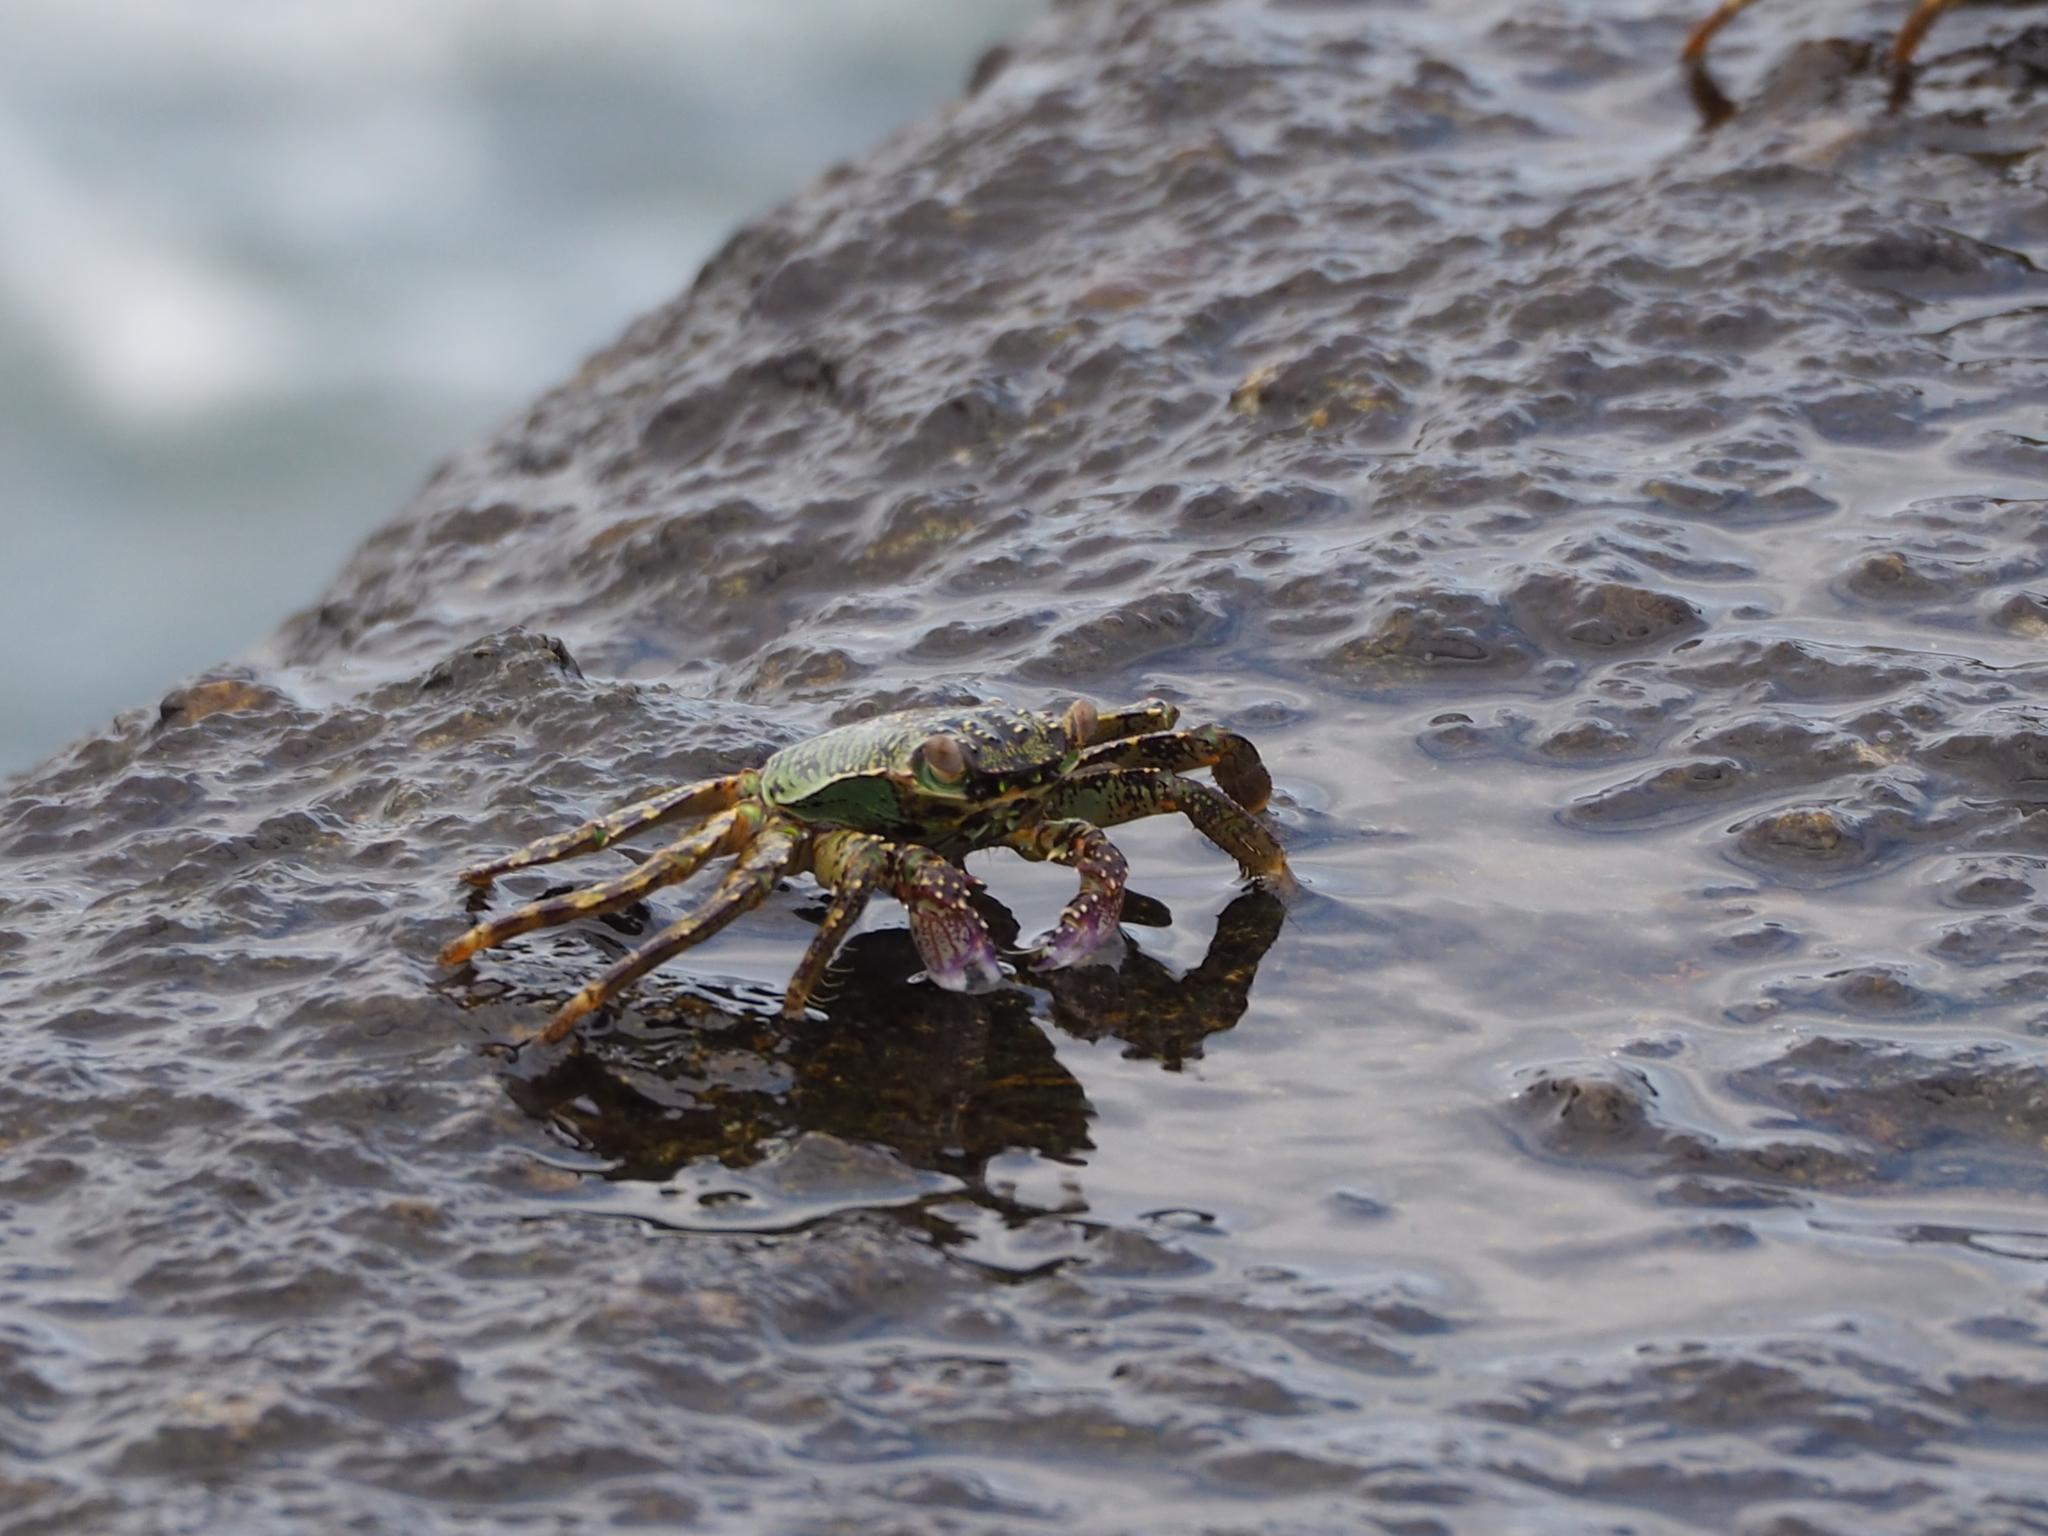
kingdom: Animalia
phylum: Arthropoda
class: Malacostraca
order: Decapoda
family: Grapsidae
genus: Grapsus
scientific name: Grapsus albolineatus
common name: Mottled lightfoot crab
